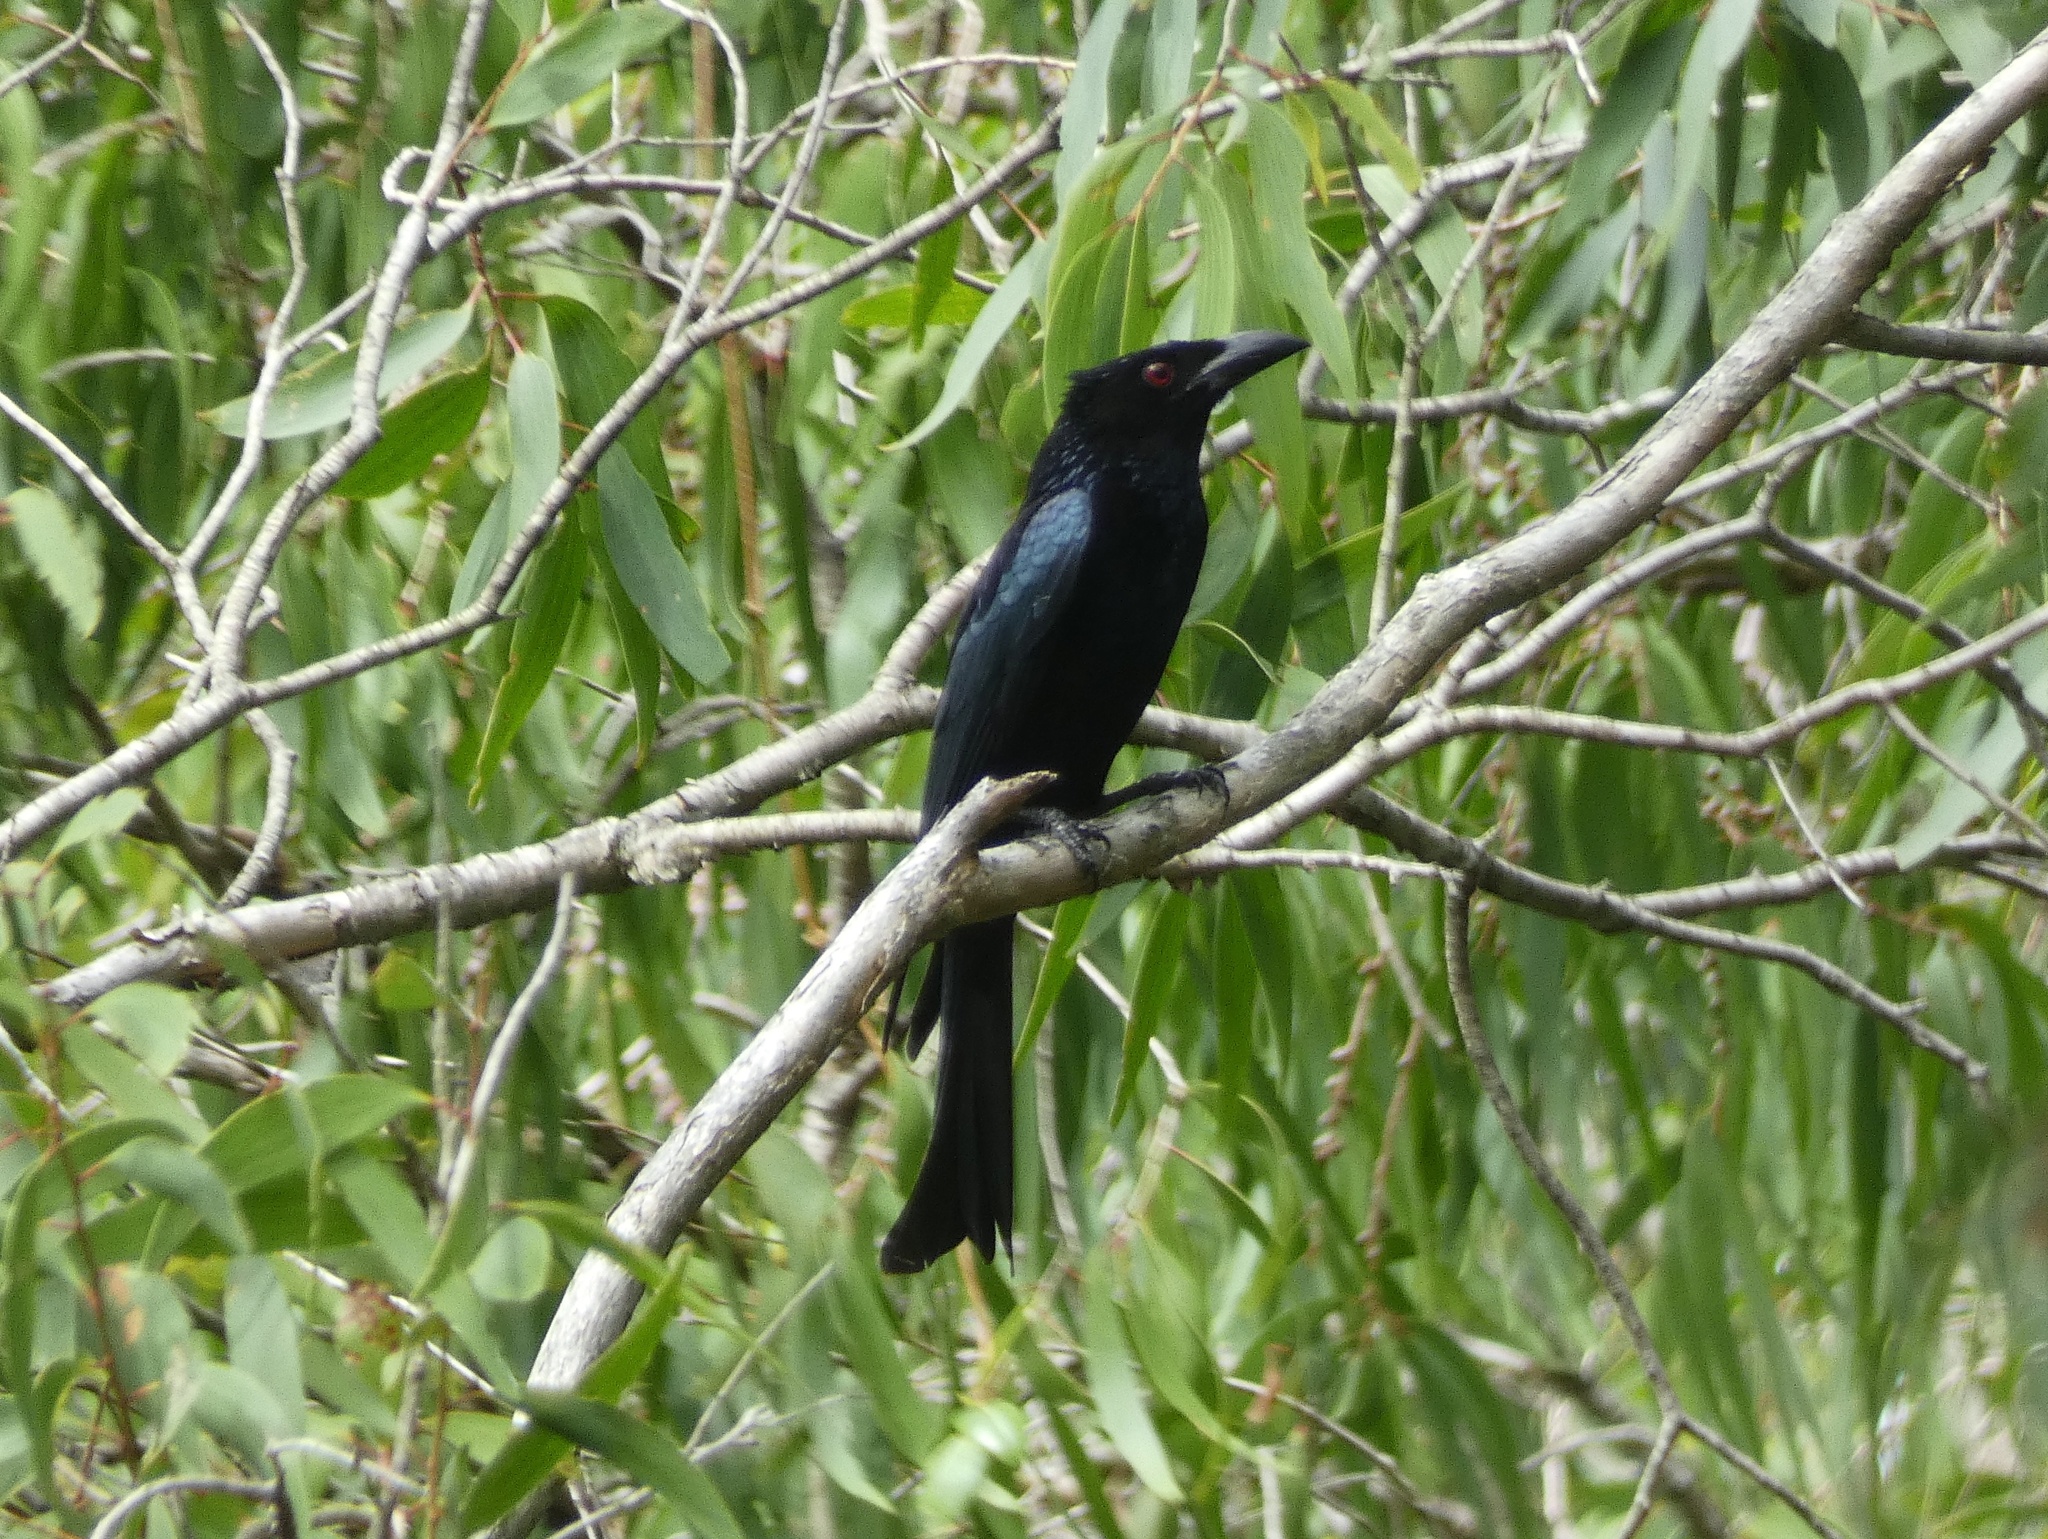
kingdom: Animalia
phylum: Chordata
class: Aves
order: Passeriformes
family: Dicruridae
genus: Dicrurus
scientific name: Dicrurus bracteatus
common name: Spangled drongo
